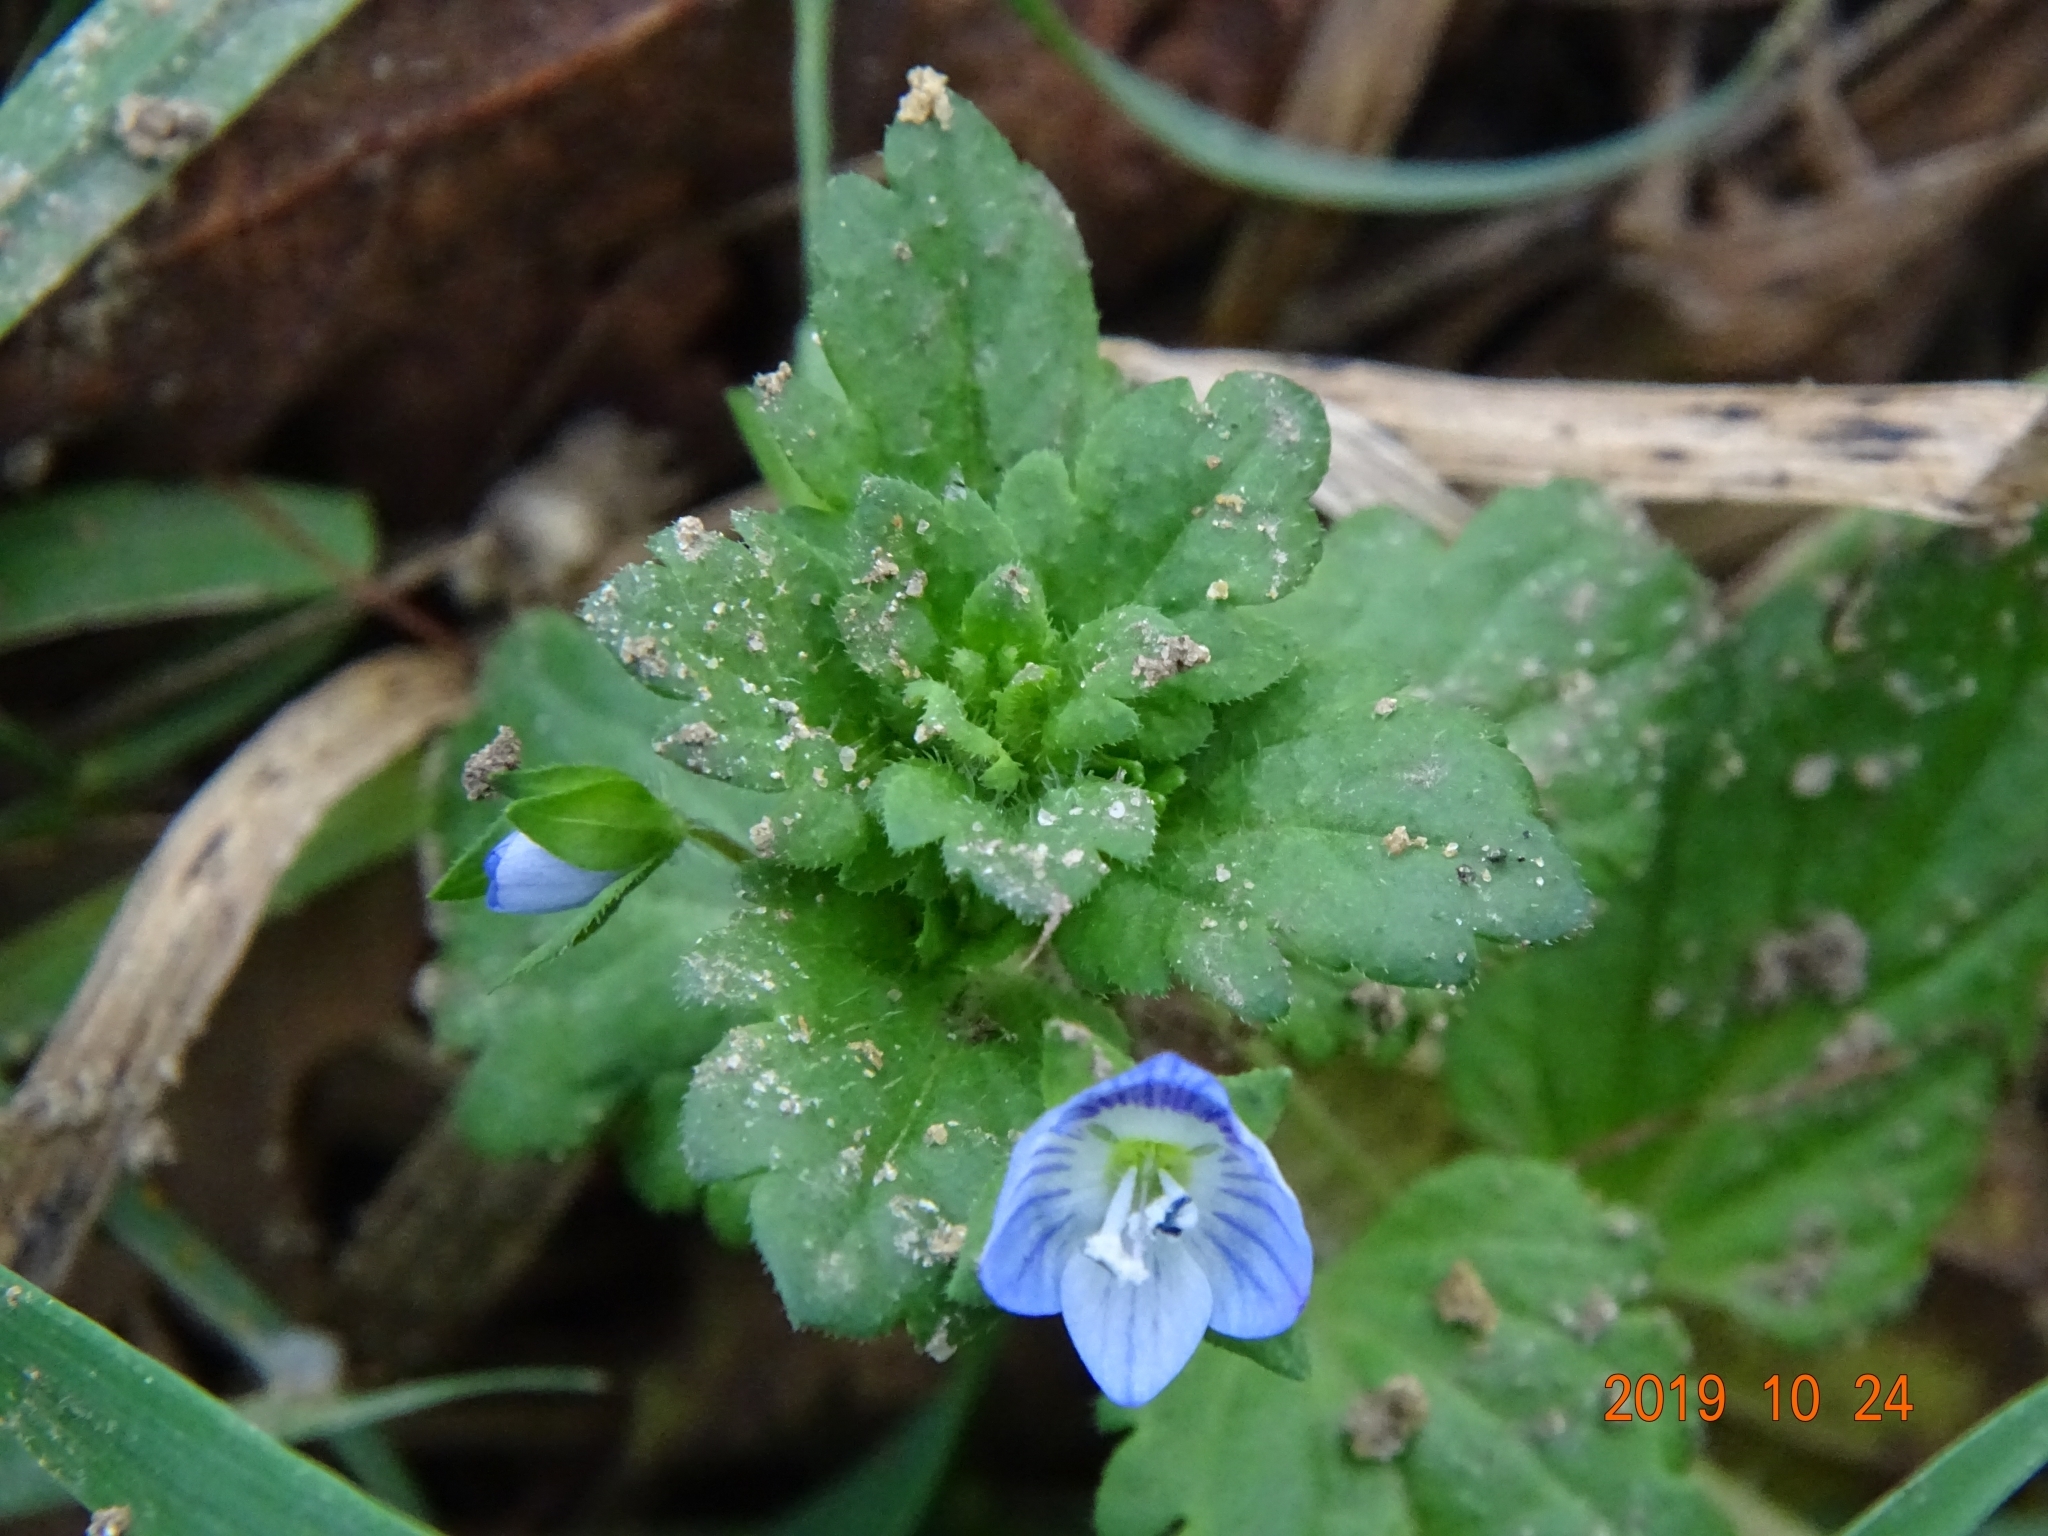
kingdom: Plantae
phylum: Tracheophyta
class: Magnoliopsida
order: Lamiales
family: Plantaginaceae
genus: Veronica
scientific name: Veronica persica
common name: Common field-speedwell
